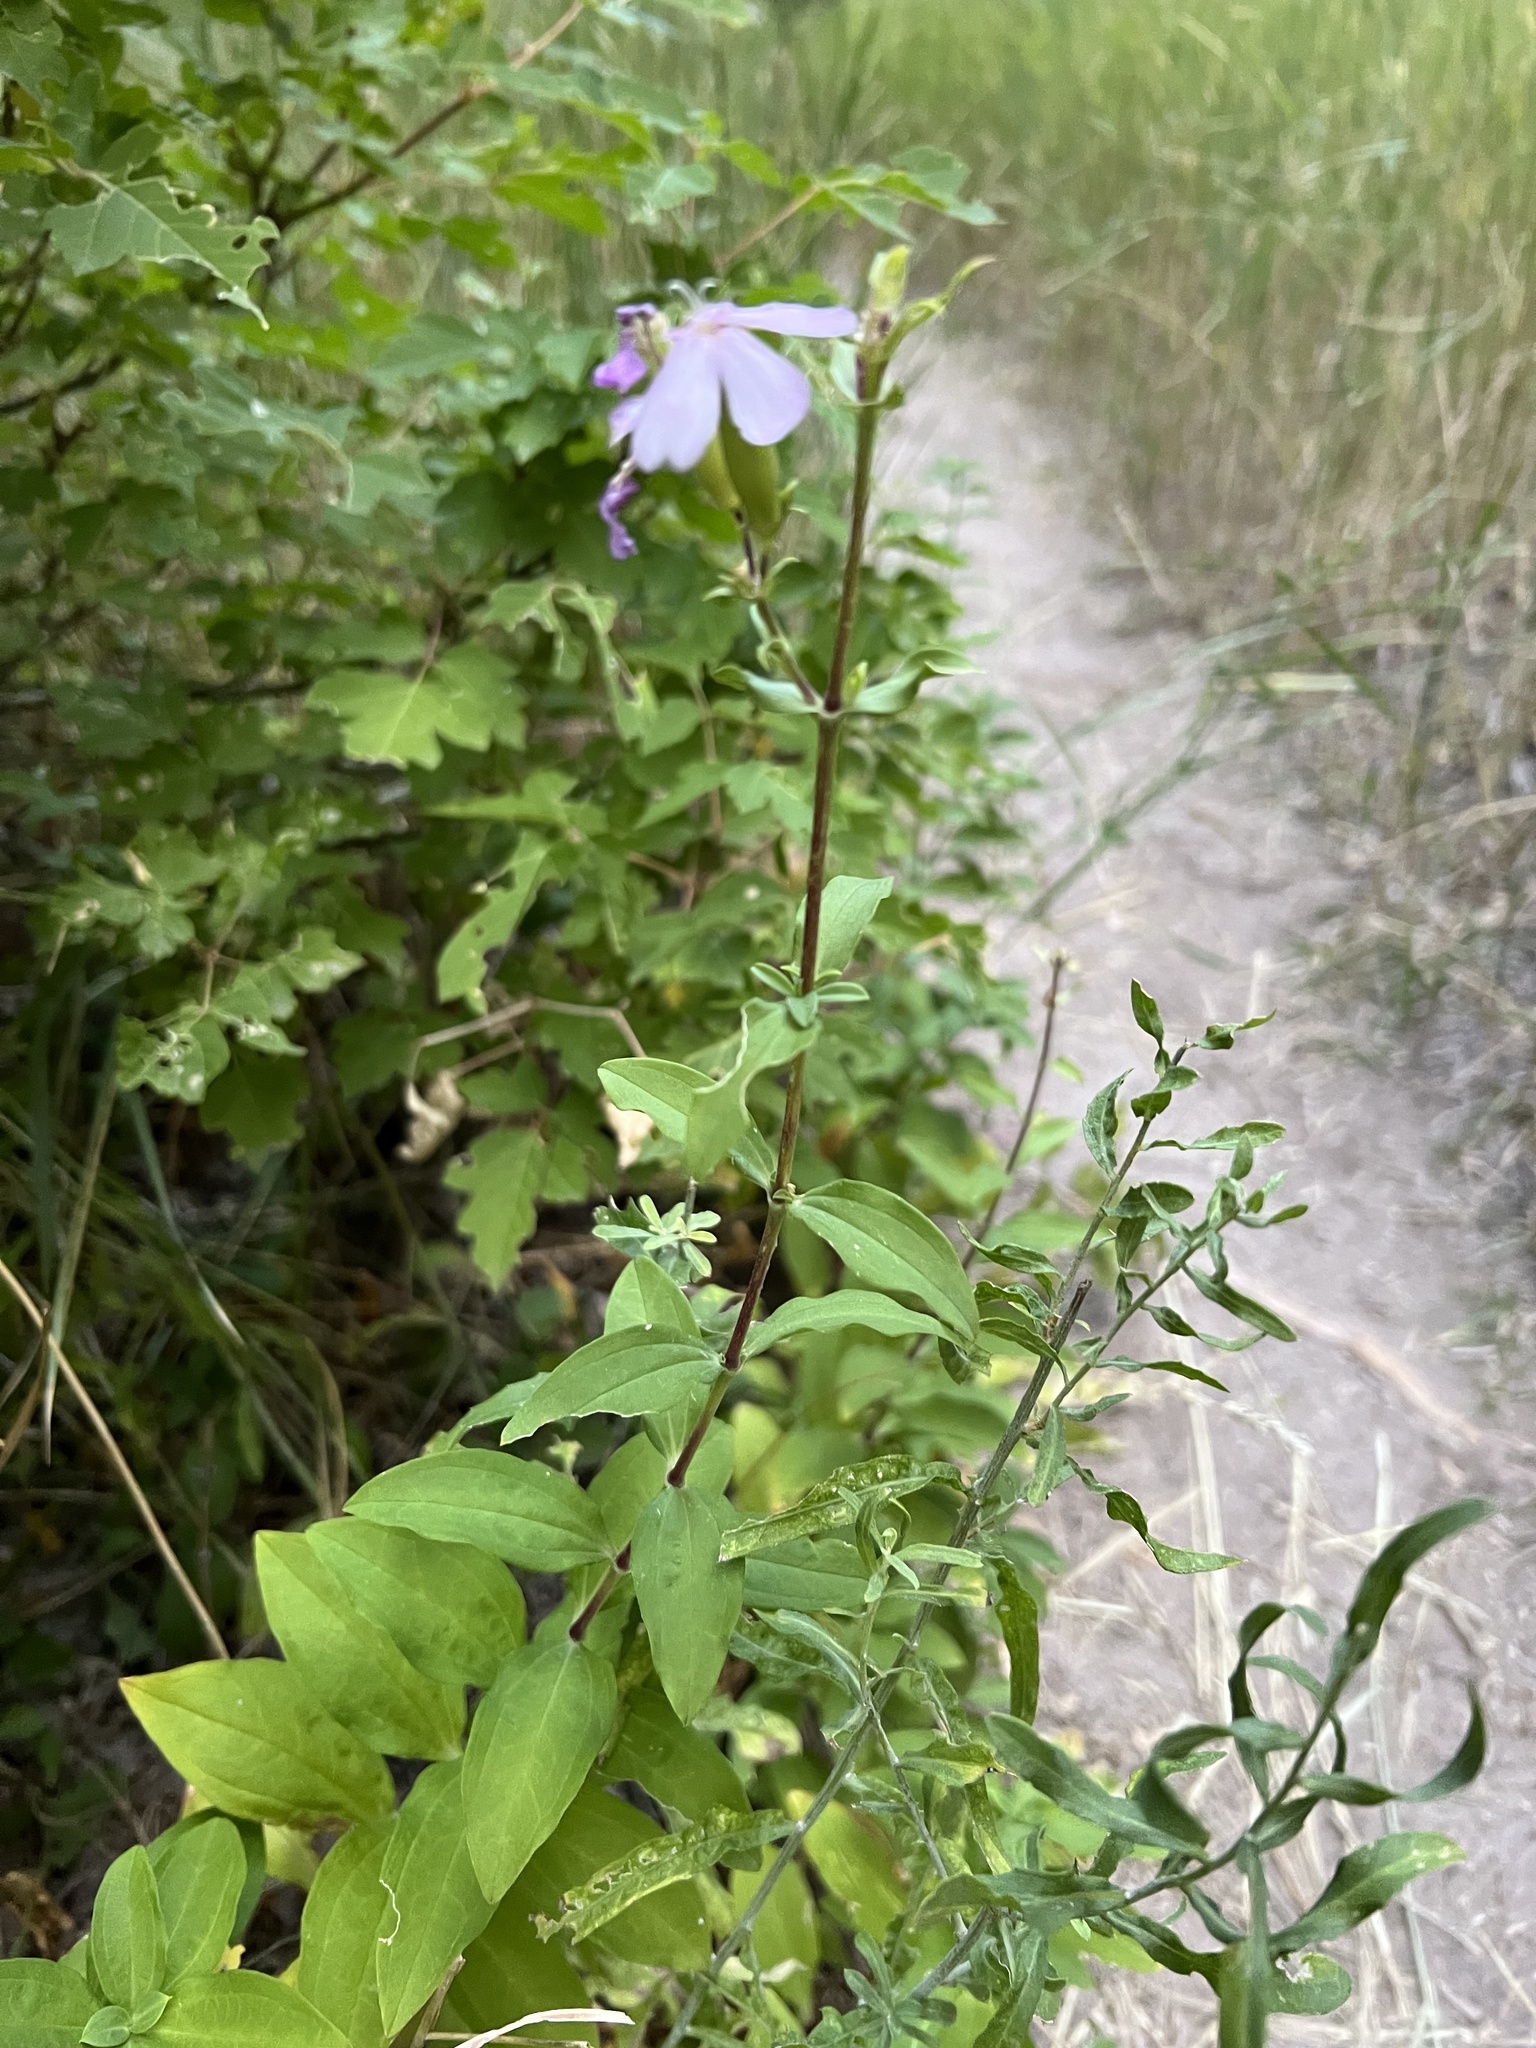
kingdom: Plantae
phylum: Tracheophyta
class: Magnoliopsida
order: Caryophyllales
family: Caryophyllaceae
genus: Saponaria
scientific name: Saponaria officinalis
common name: Soapwort
